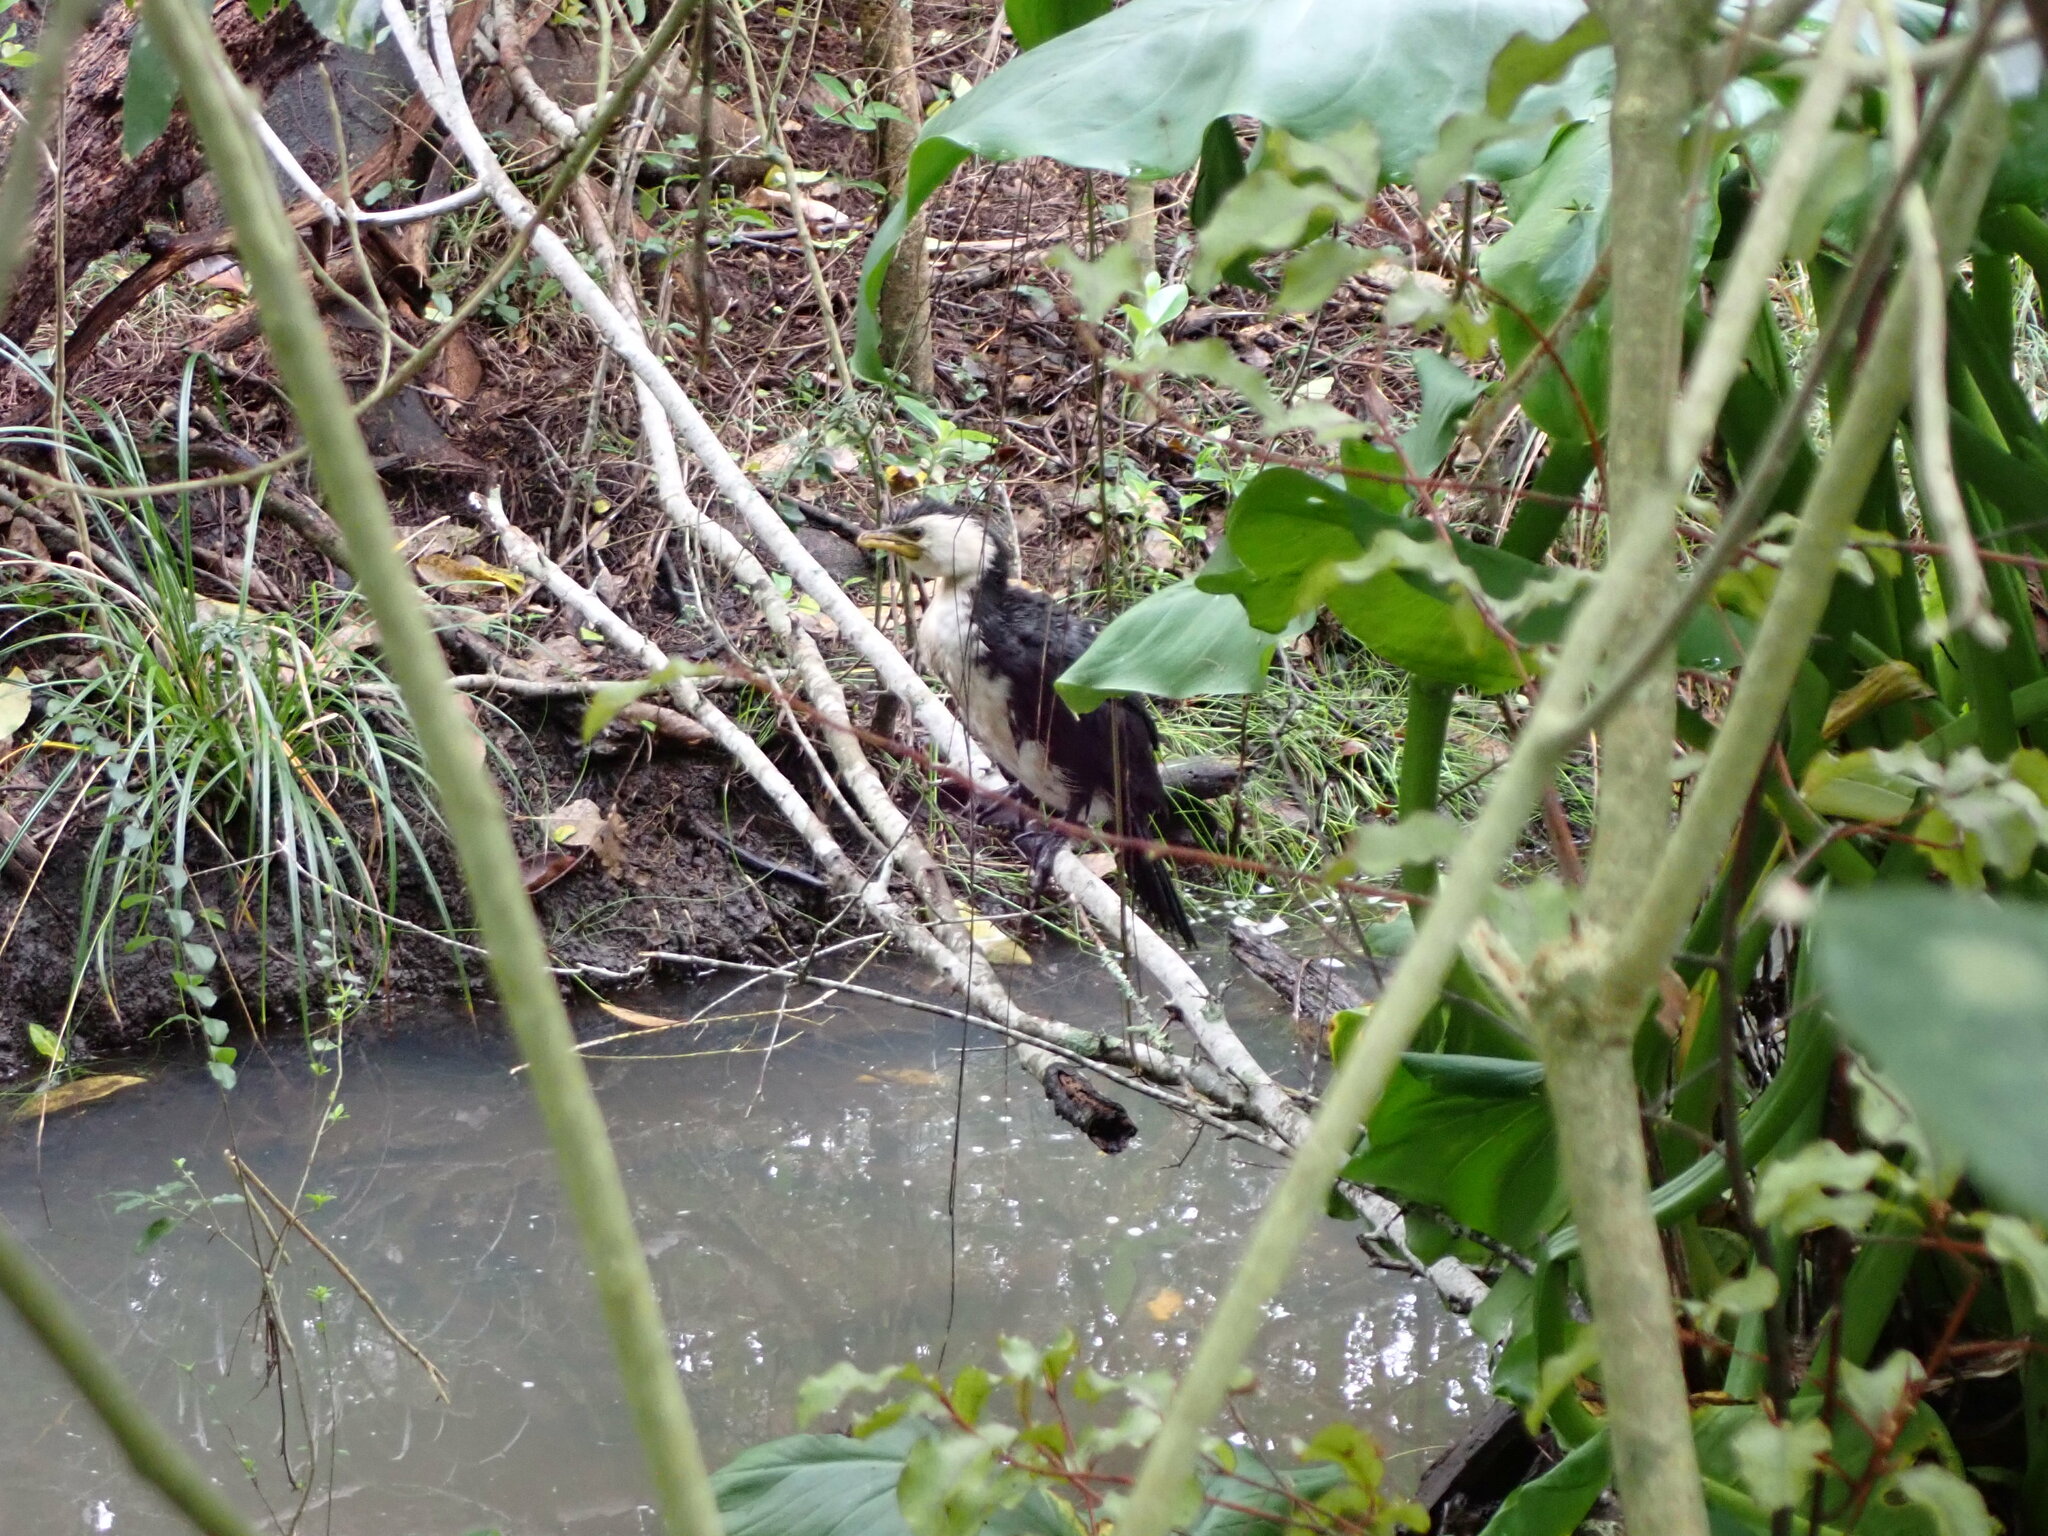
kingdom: Animalia
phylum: Chordata
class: Aves
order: Suliformes
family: Phalacrocoracidae
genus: Microcarbo
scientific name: Microcarbo melanoleucos
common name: Little pied cormorant
